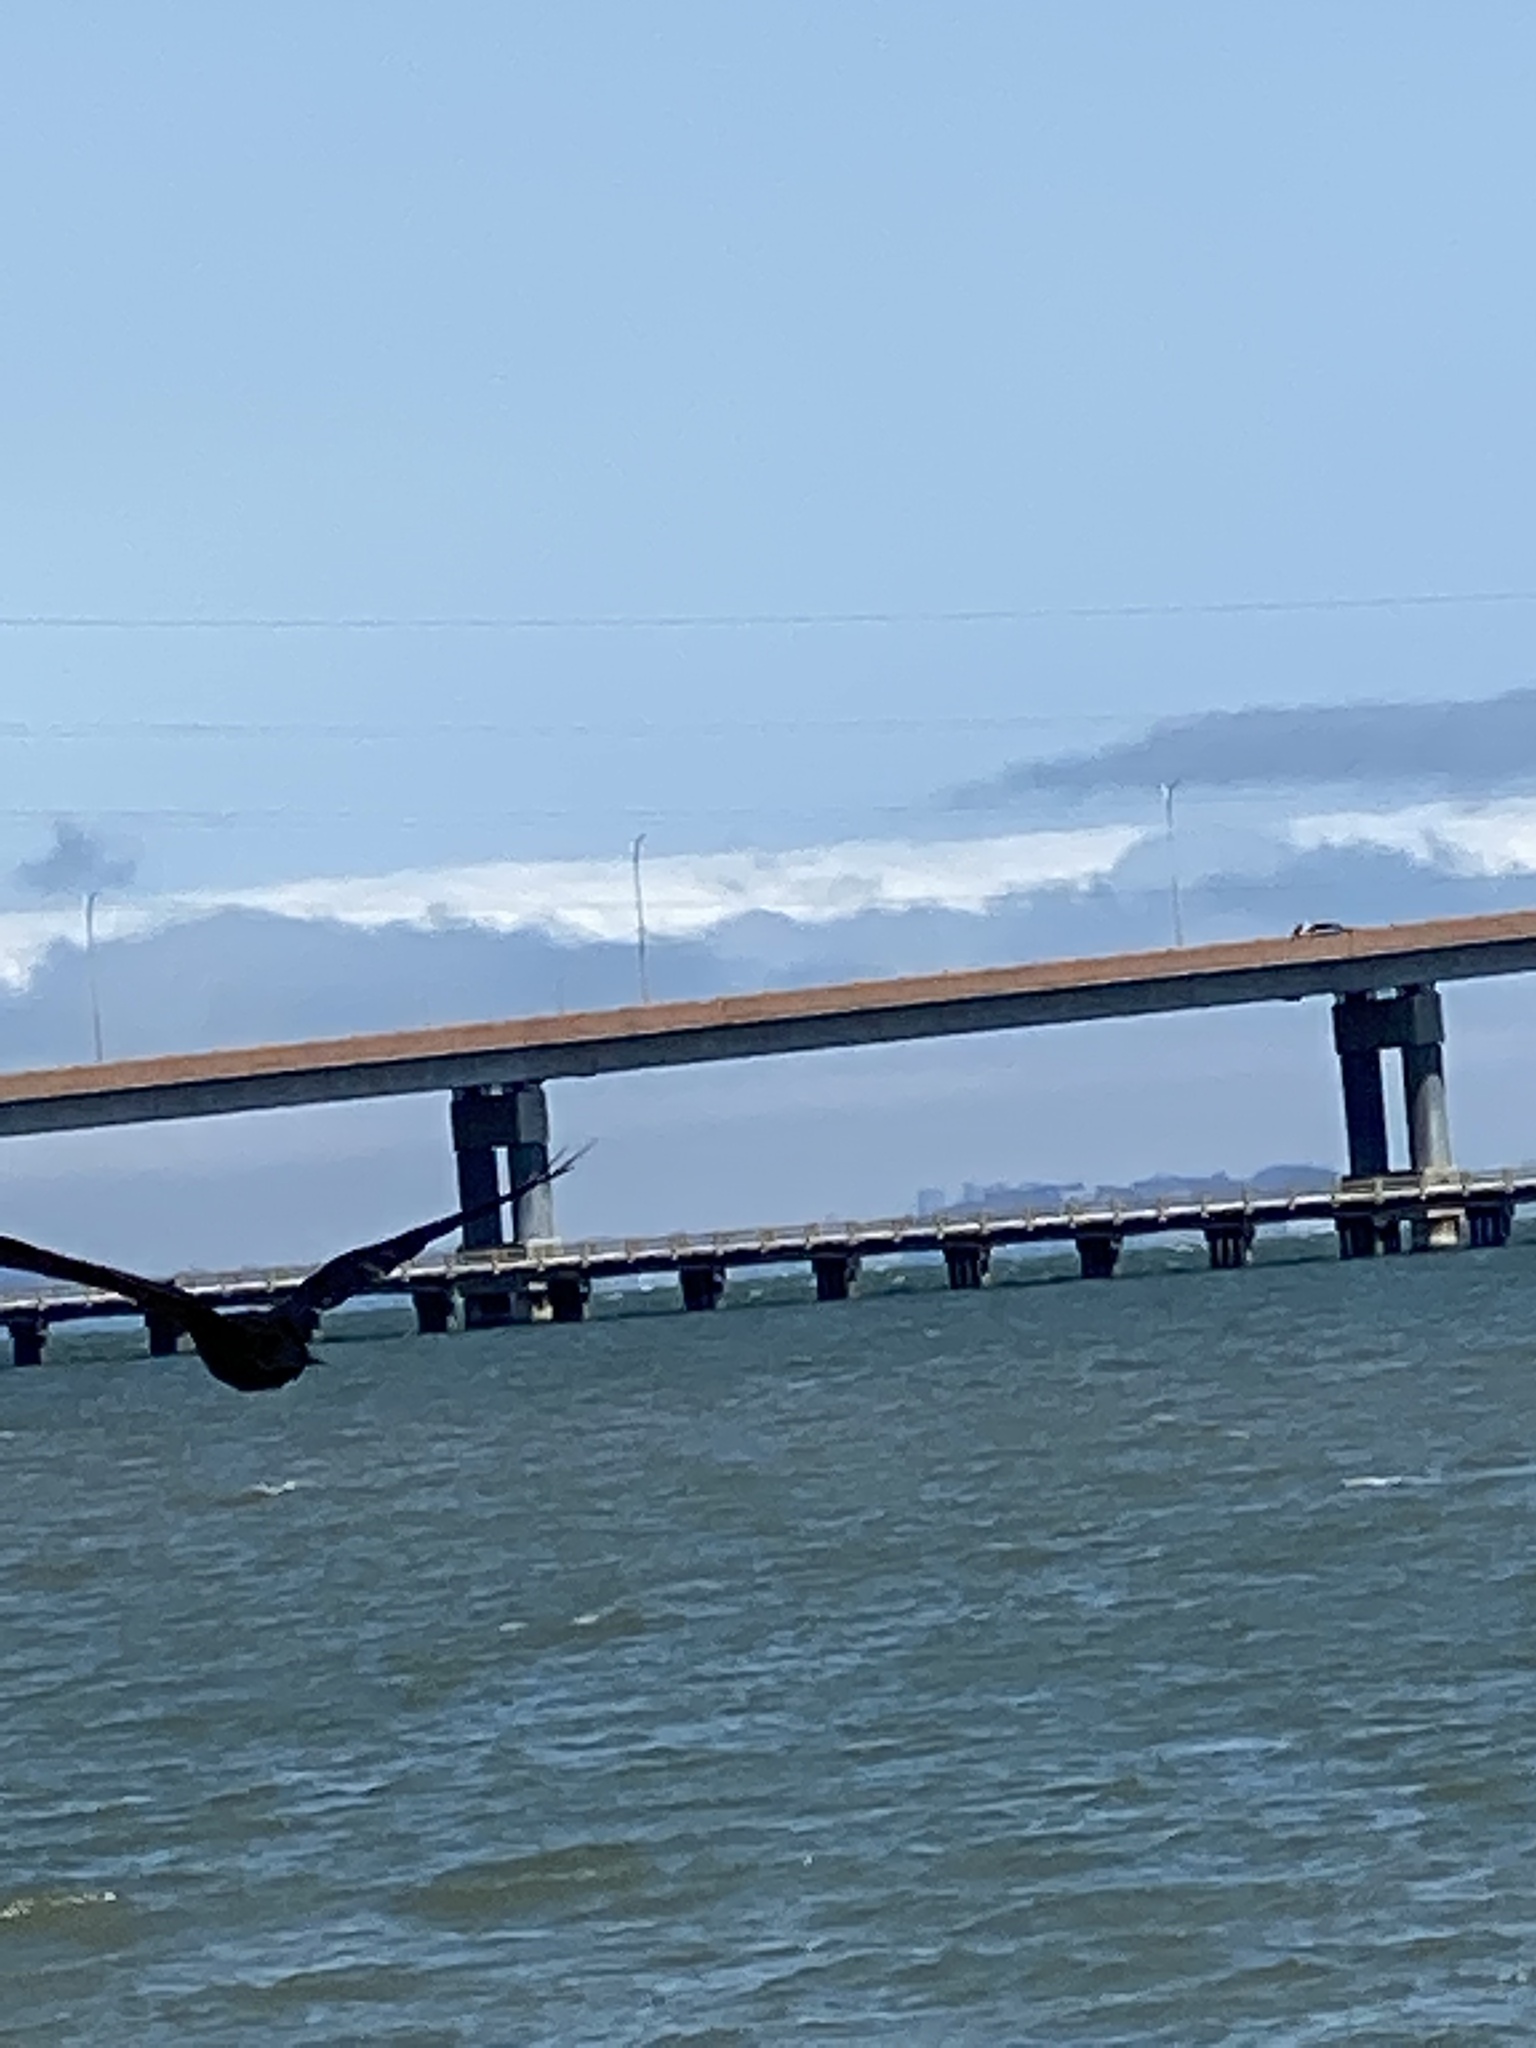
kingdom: Animalia
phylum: Chordata
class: Aves
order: Passeriformes
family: Corvidae
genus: Corvus
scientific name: Corvus brachyrhynchos
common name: American crow
